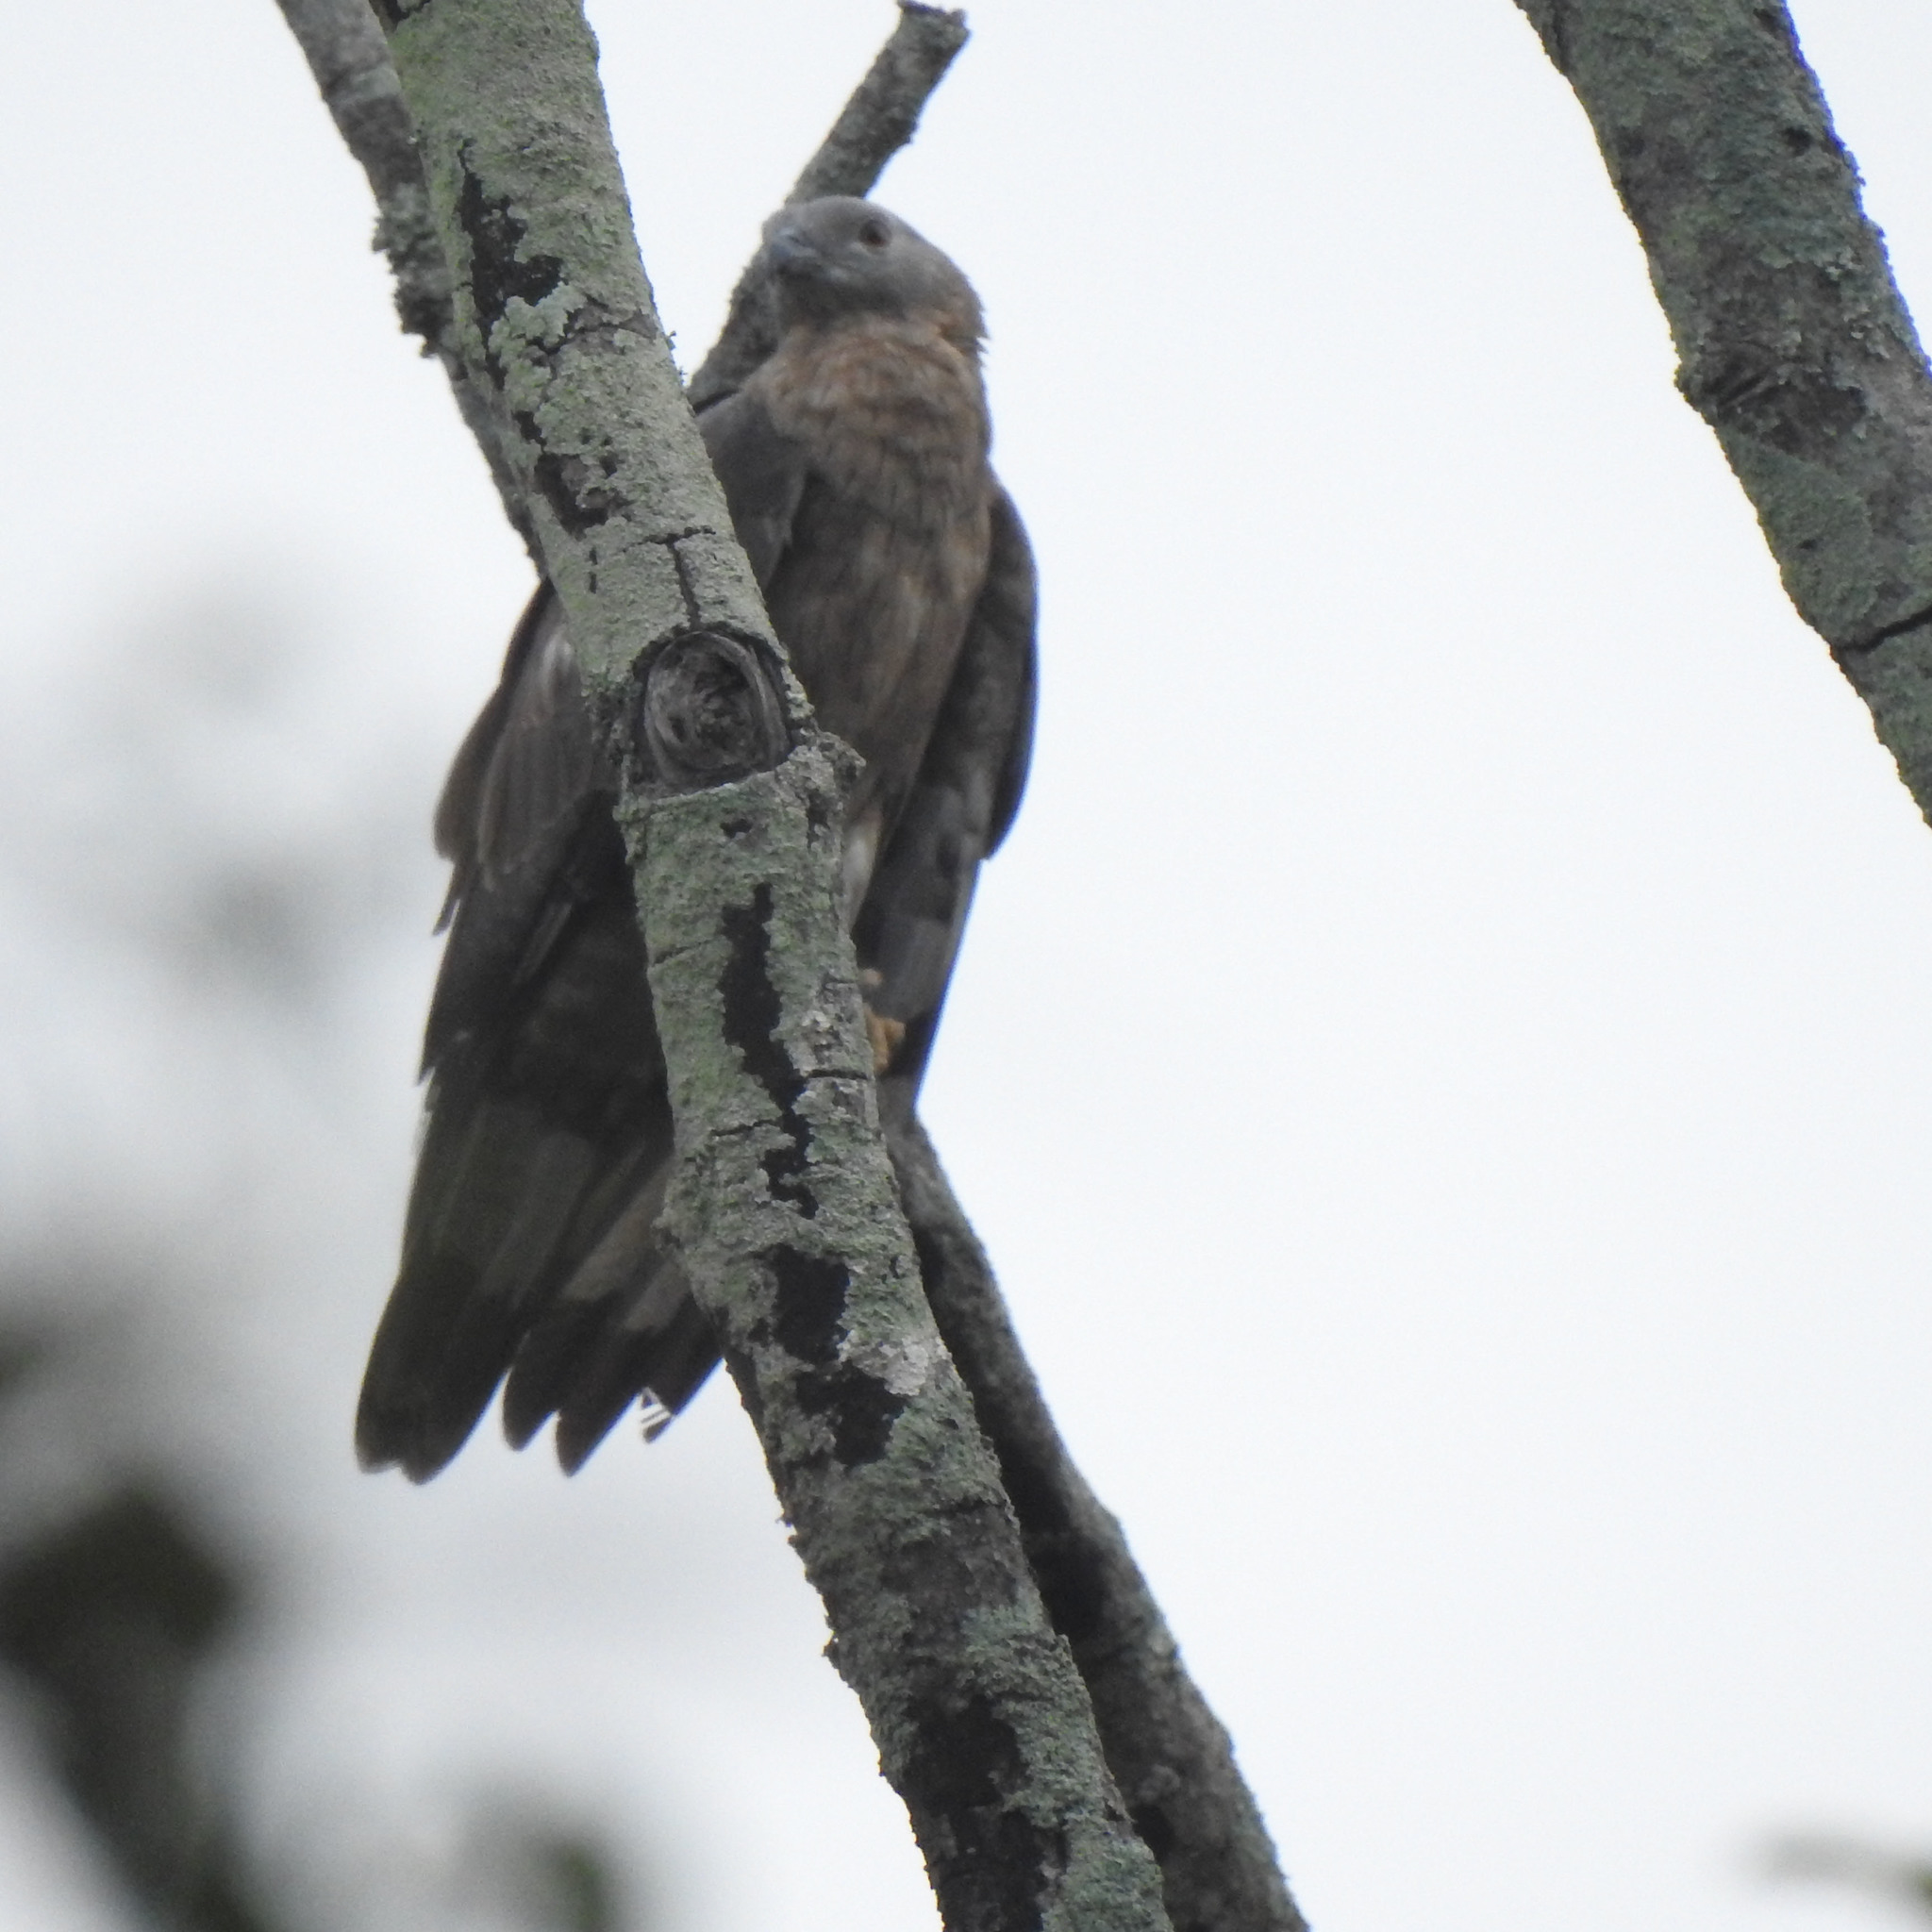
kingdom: Animalia
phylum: Chordata
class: Aves
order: Accipitriformes
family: Accipitridae
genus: Pernis
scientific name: Pernis ptilorhynchus
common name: Crested honey buzzard
